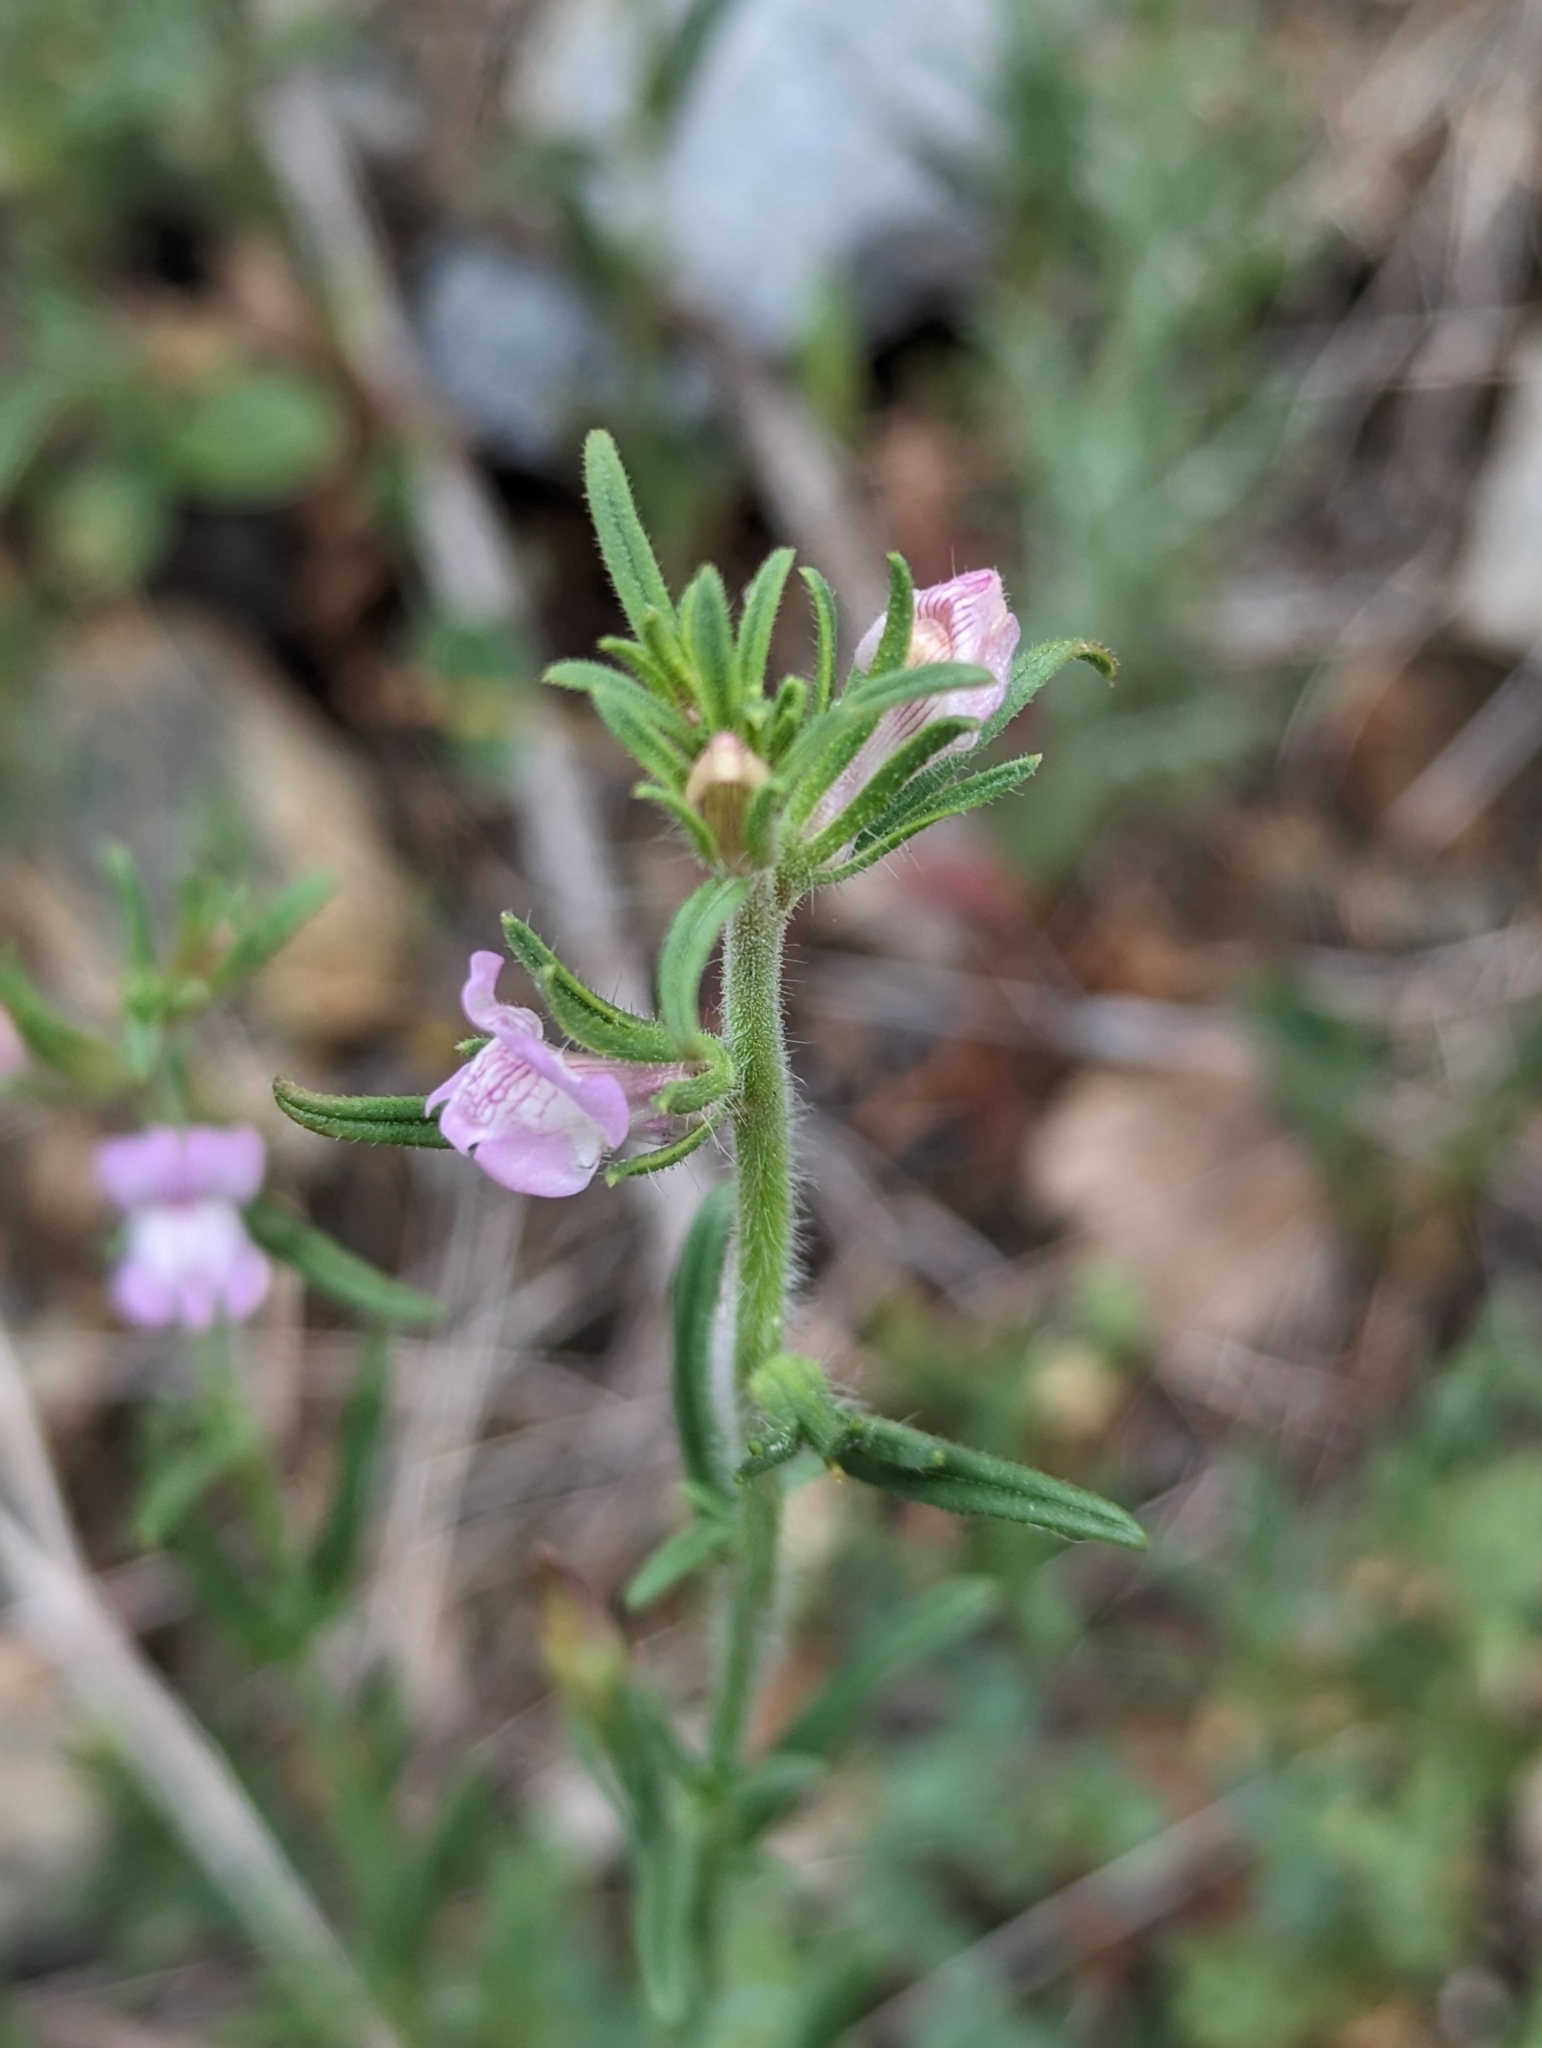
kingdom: Plantae
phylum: Tracheophyta
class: Magnoliopsida
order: Lamiales
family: Plantaginaceae
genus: Misopates
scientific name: Misopates orontium
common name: Weasel's-snout
